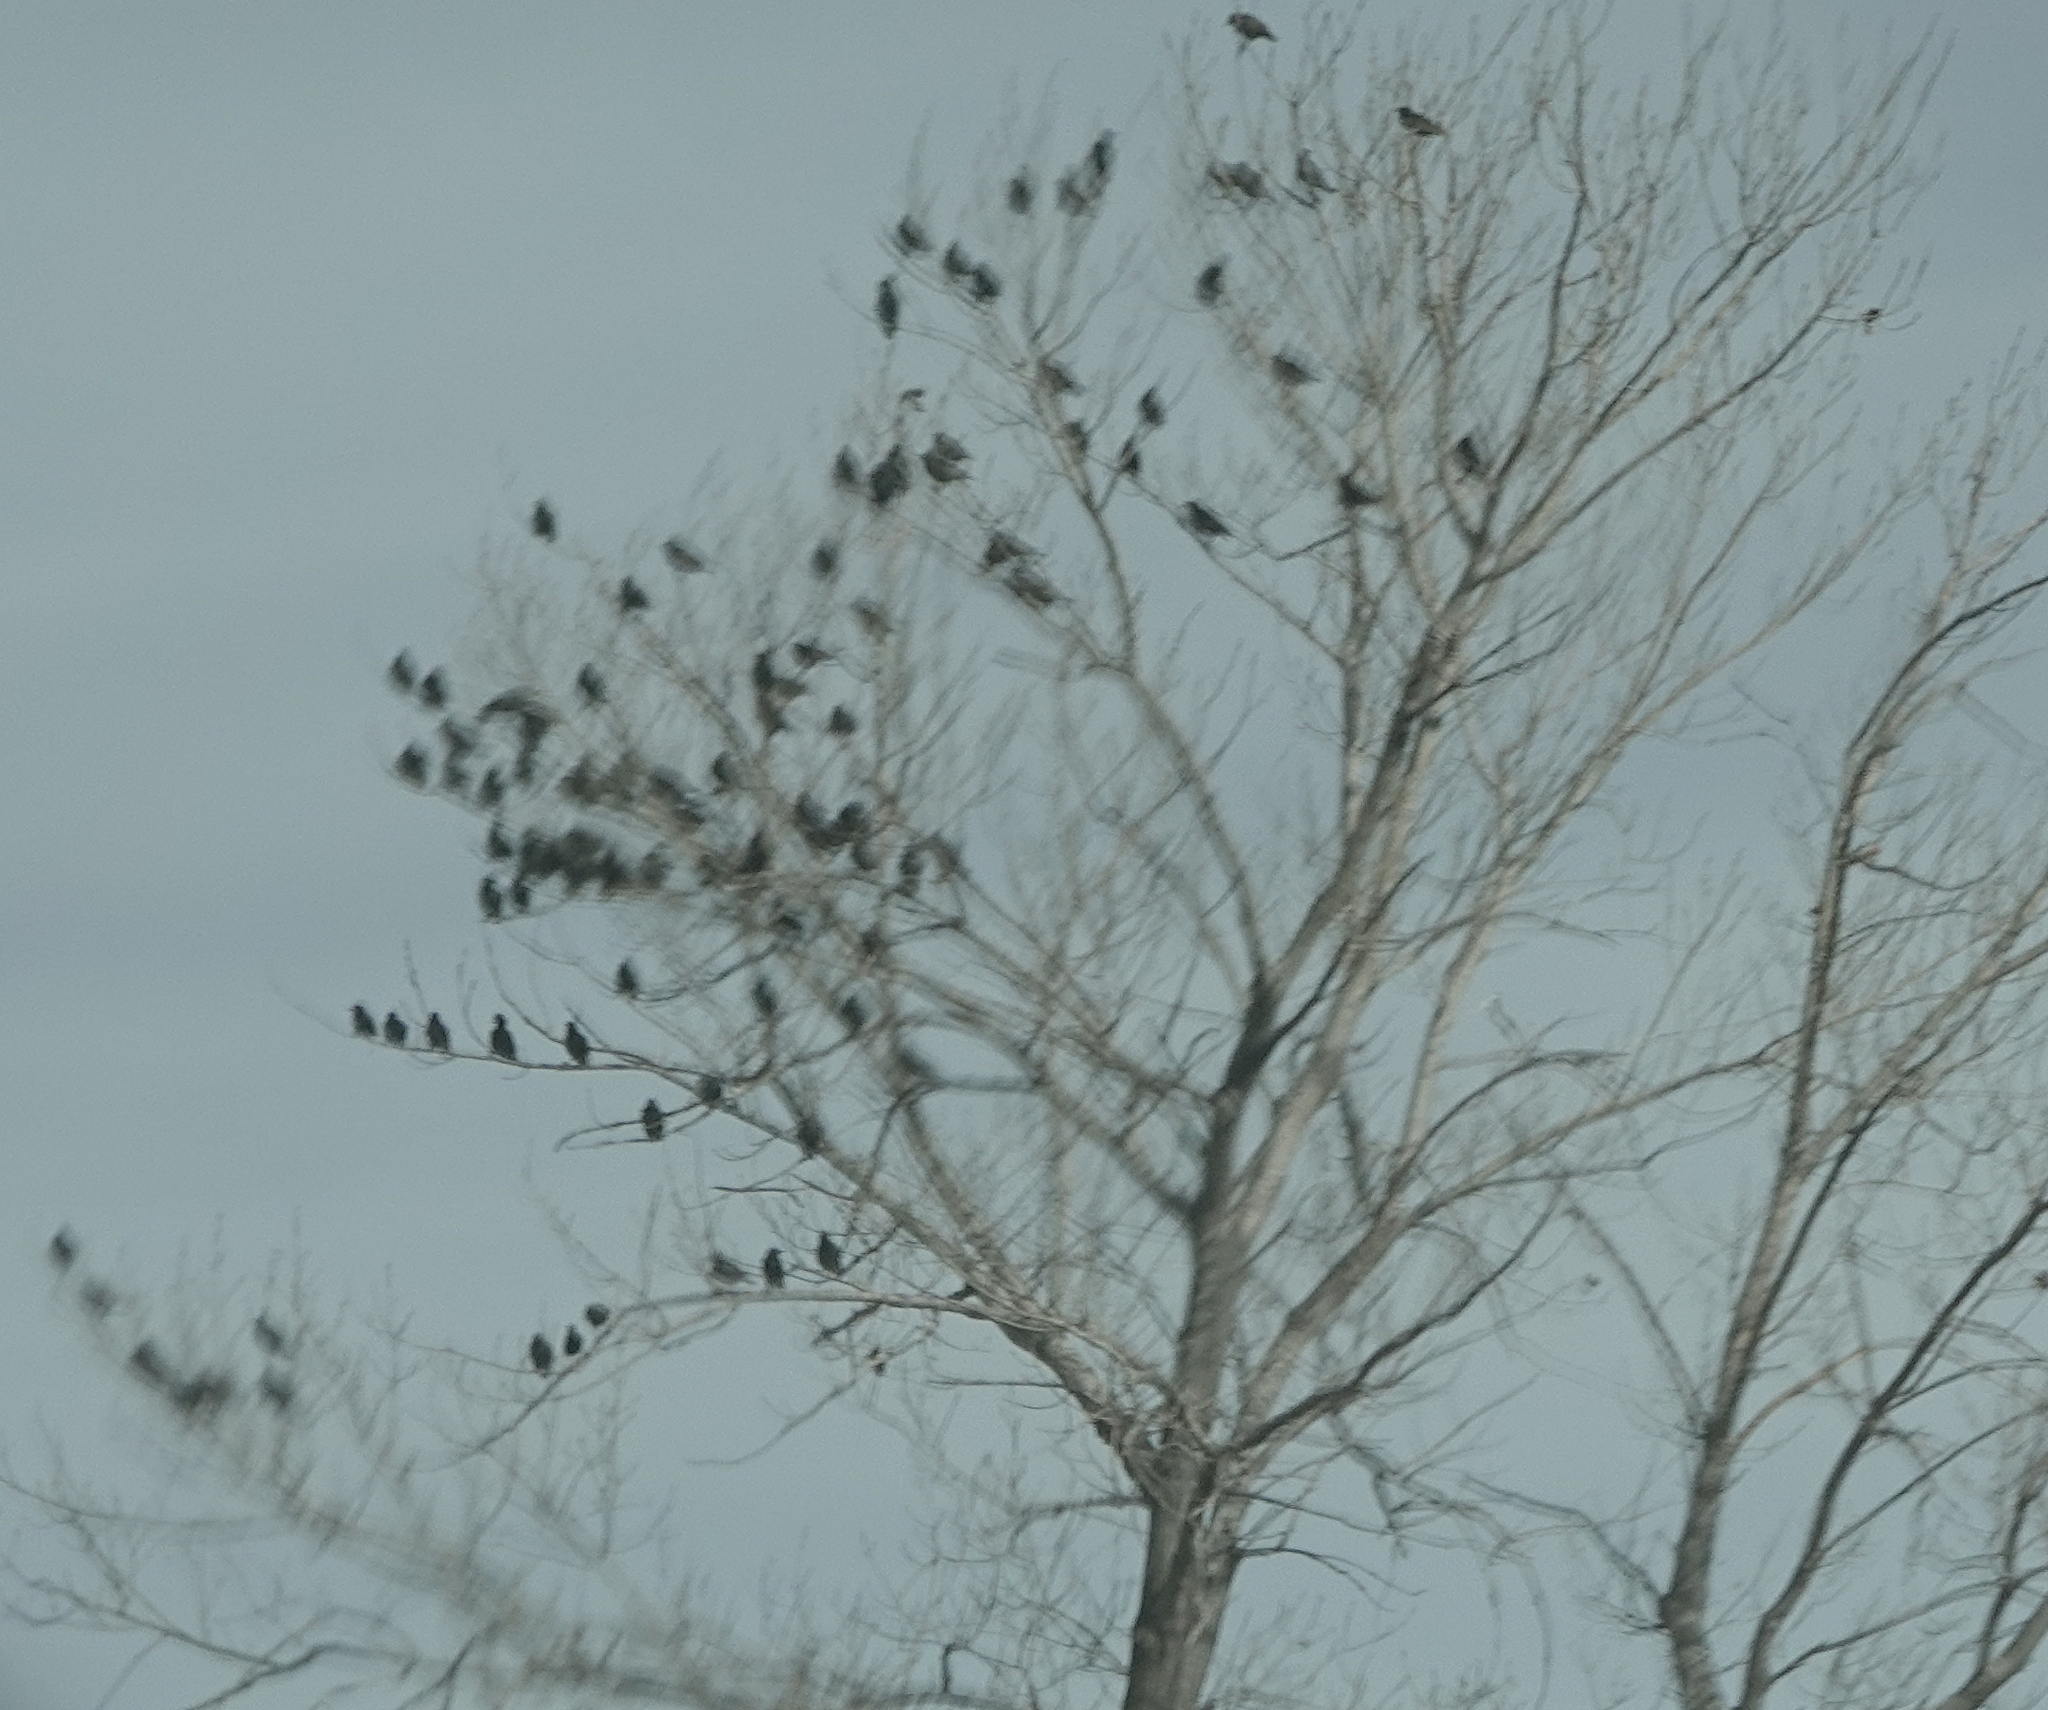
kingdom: Animalia
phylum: Chordata
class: Aves
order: Passeriformes
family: Sturnidae
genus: Sturnus
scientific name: Sturnus vulgaris
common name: Common starling
